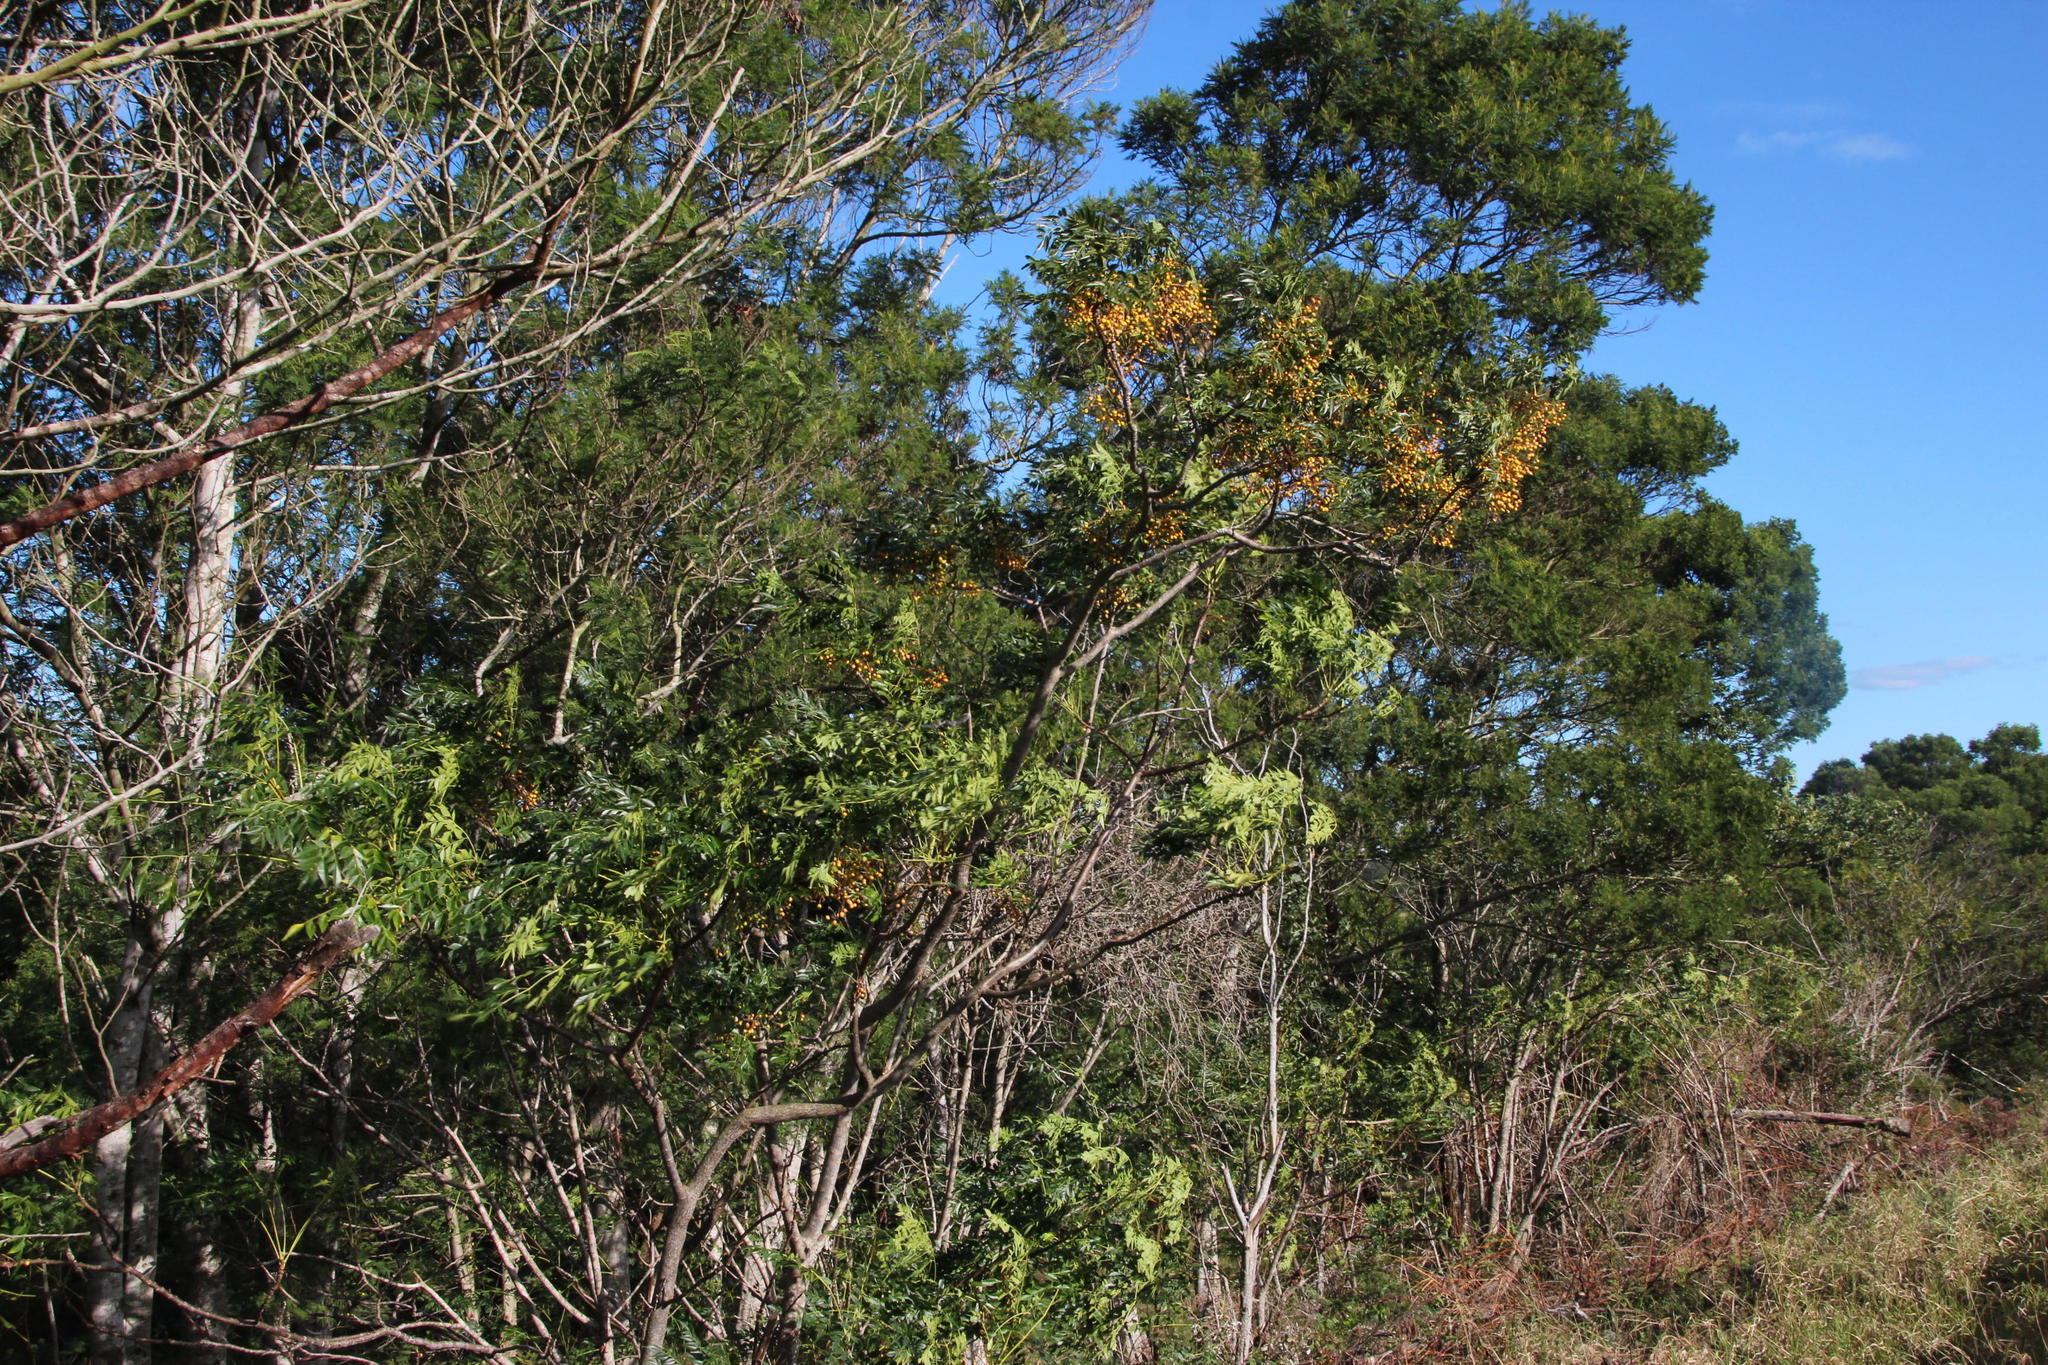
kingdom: Plantae
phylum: Tracheophyta
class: Magnoliopsida
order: Sapindales
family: Meliaceae
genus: Melia
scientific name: Melia azedarach
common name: Chinaberrytree
